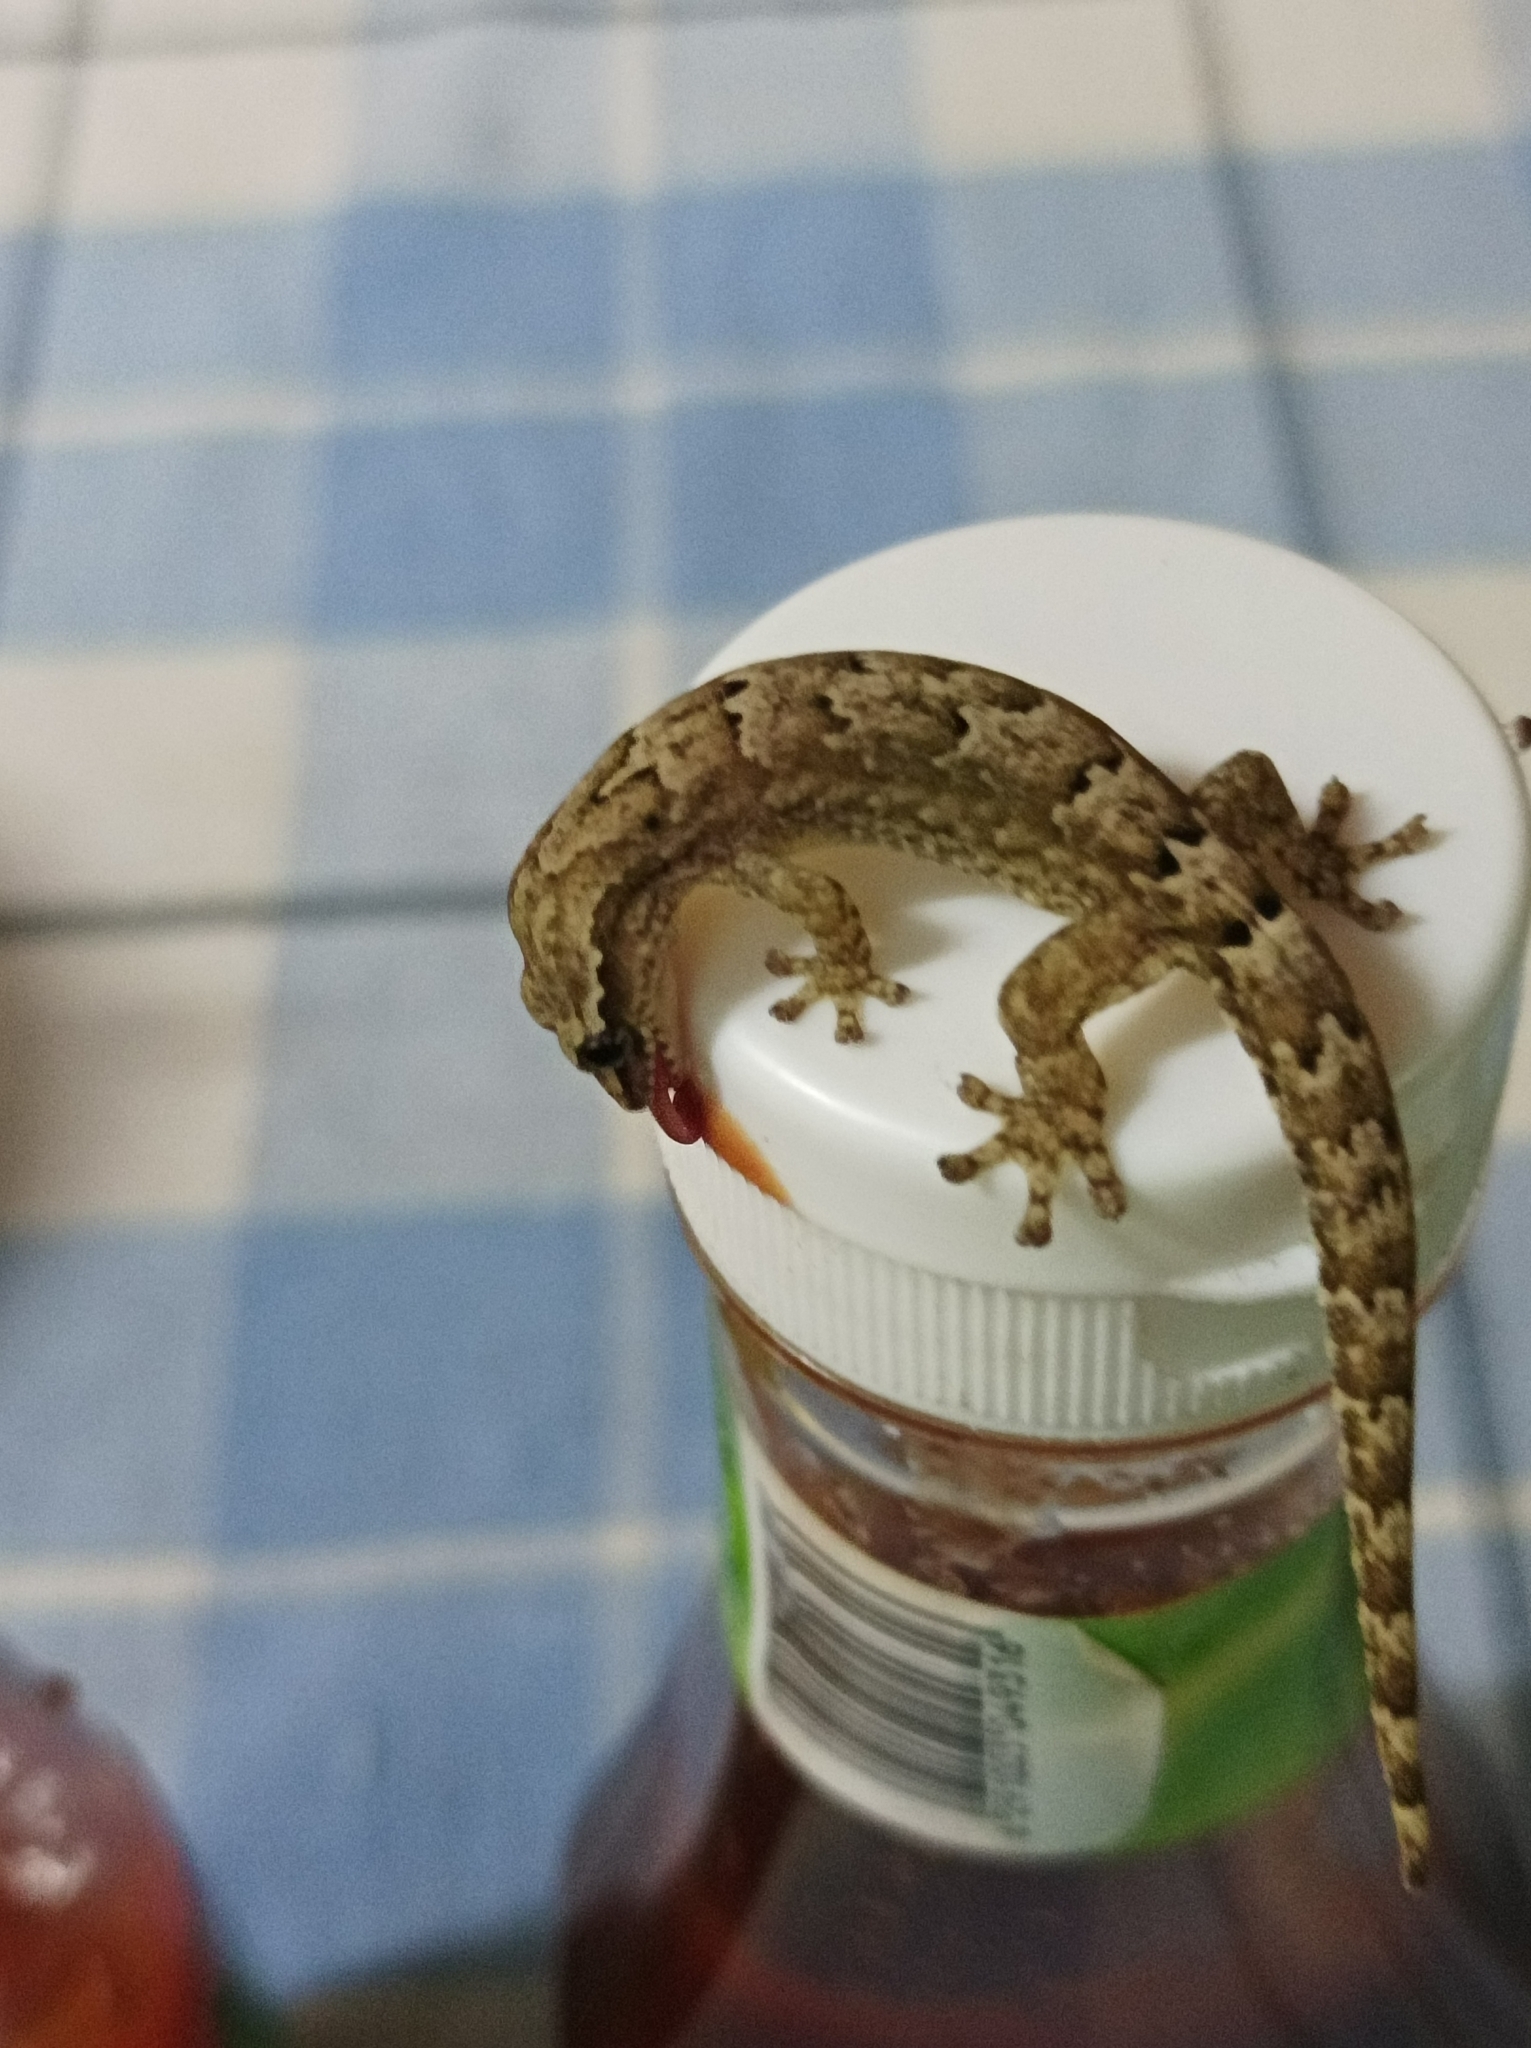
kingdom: Animalia
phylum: Chordata
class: Squamata
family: Gekkonidae
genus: Lepidodactylus
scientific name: Lepidodactylus lugubris
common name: Mourning gecko
